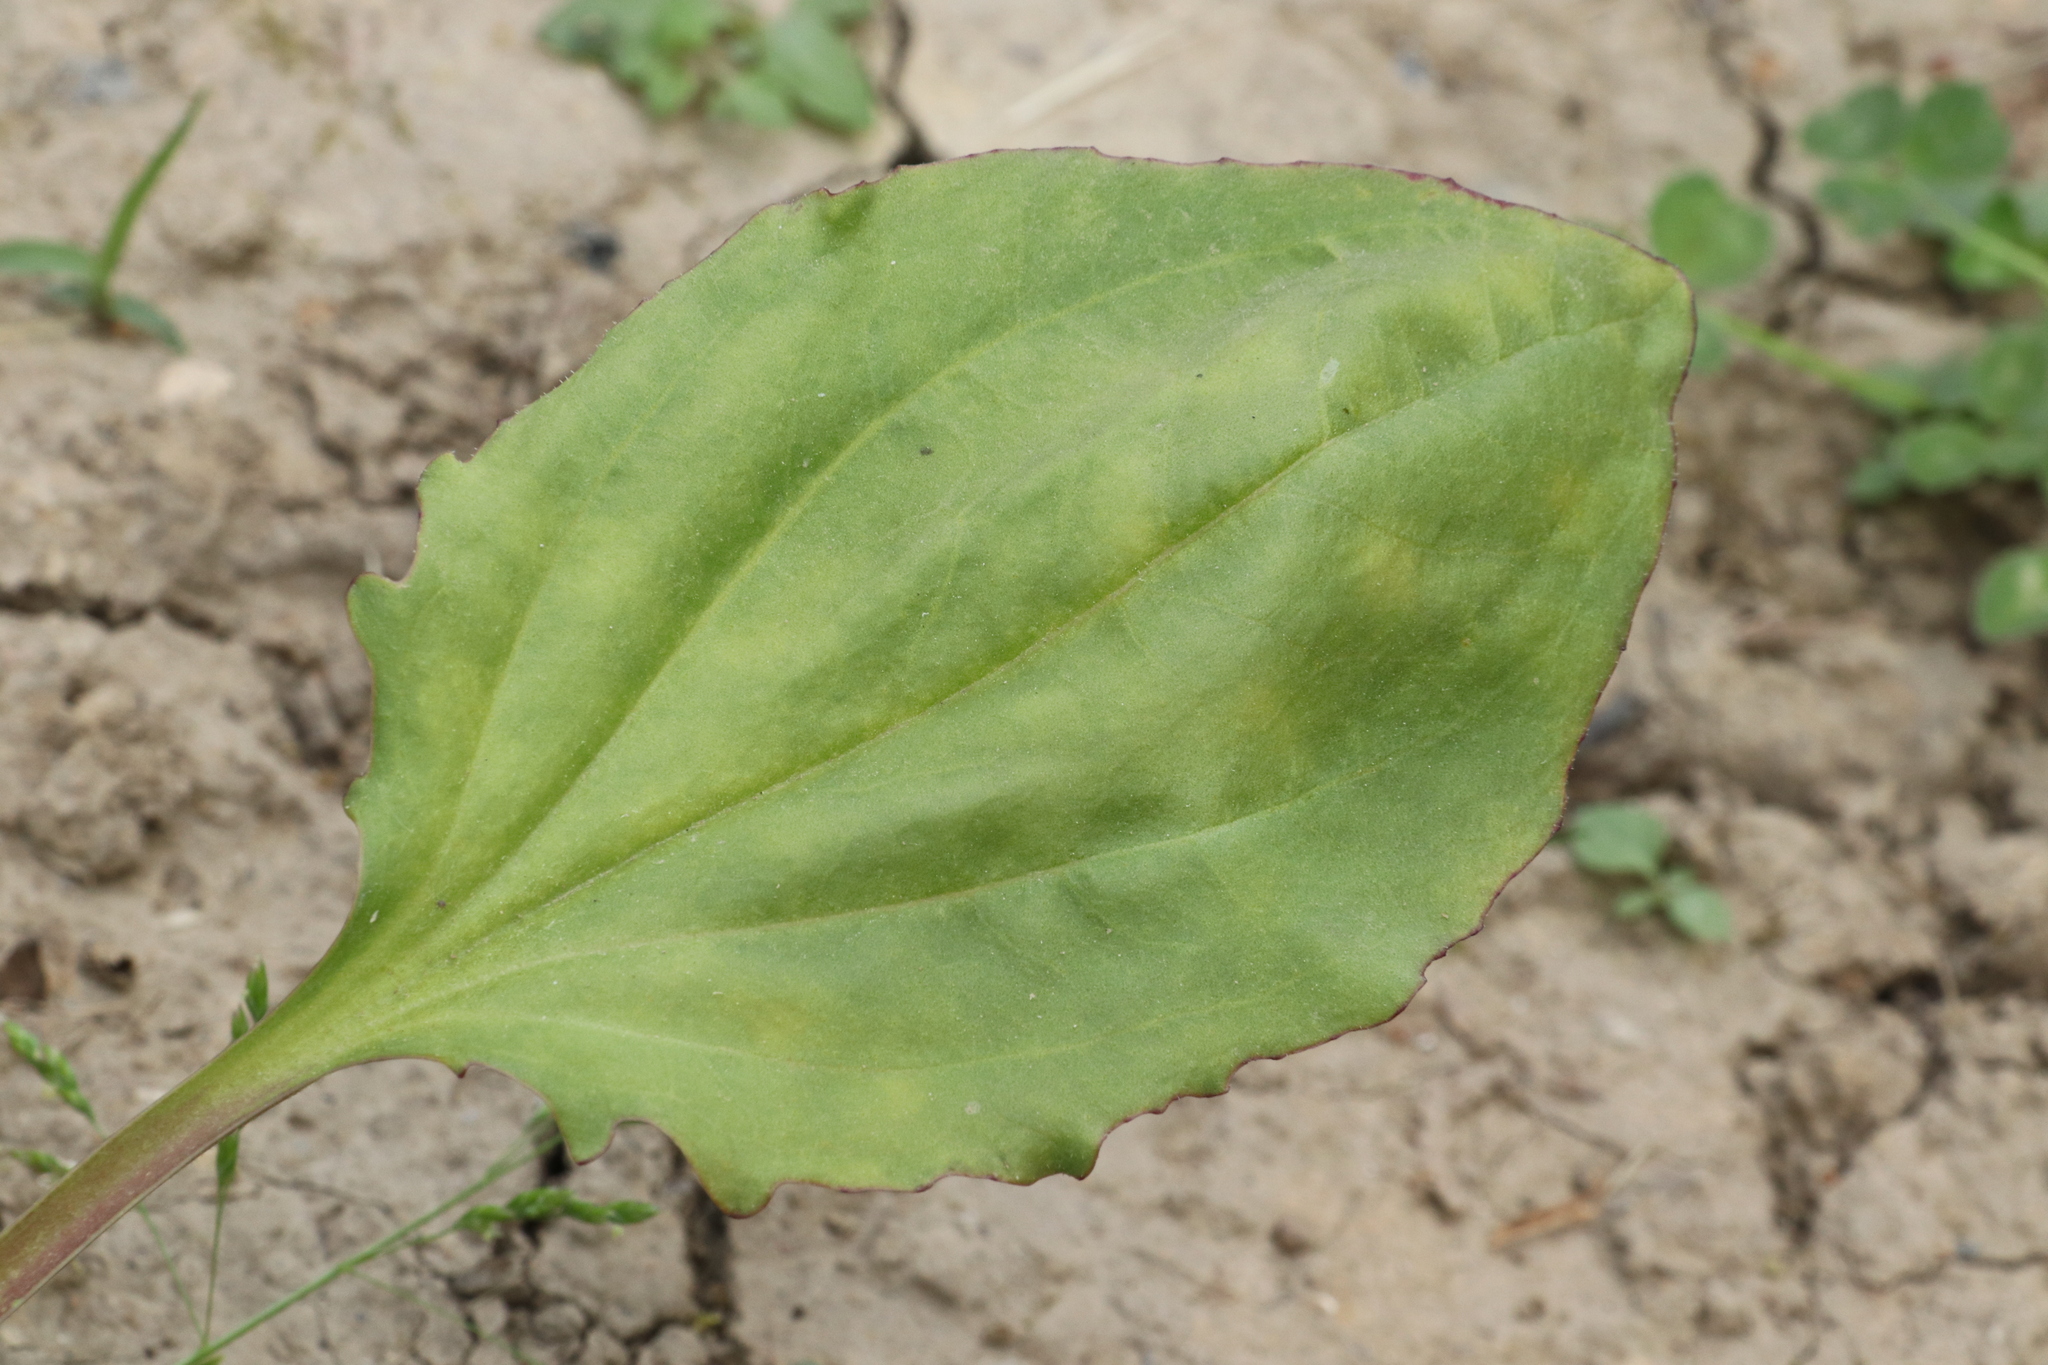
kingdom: Plantae
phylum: Tracheophyta
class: Magnoliopsida
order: Lamiales
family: Plantaginaceae
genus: Plantago
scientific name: Plantago uliginosa
